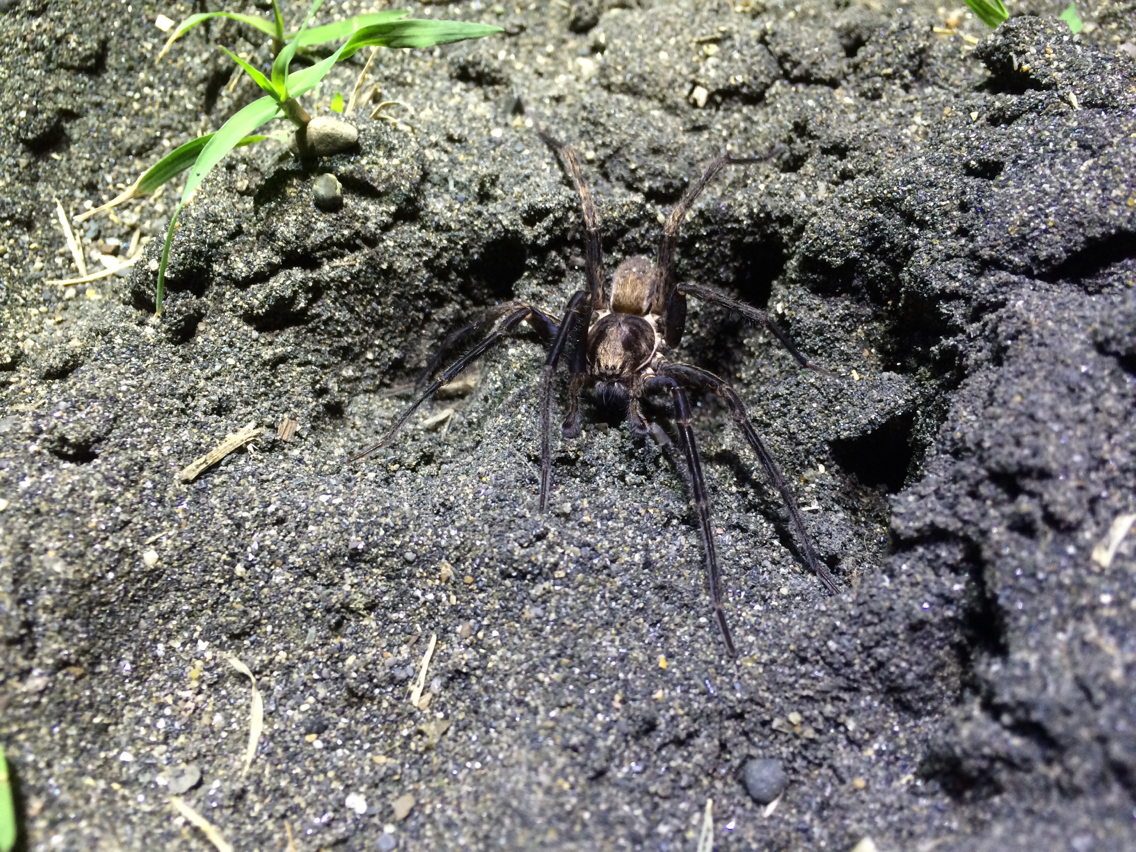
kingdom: Animalia
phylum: Arthropoda
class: Arachnida
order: Araneae
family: Zoropsidae
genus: Uliodon
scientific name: Uliodon albopunctatus
